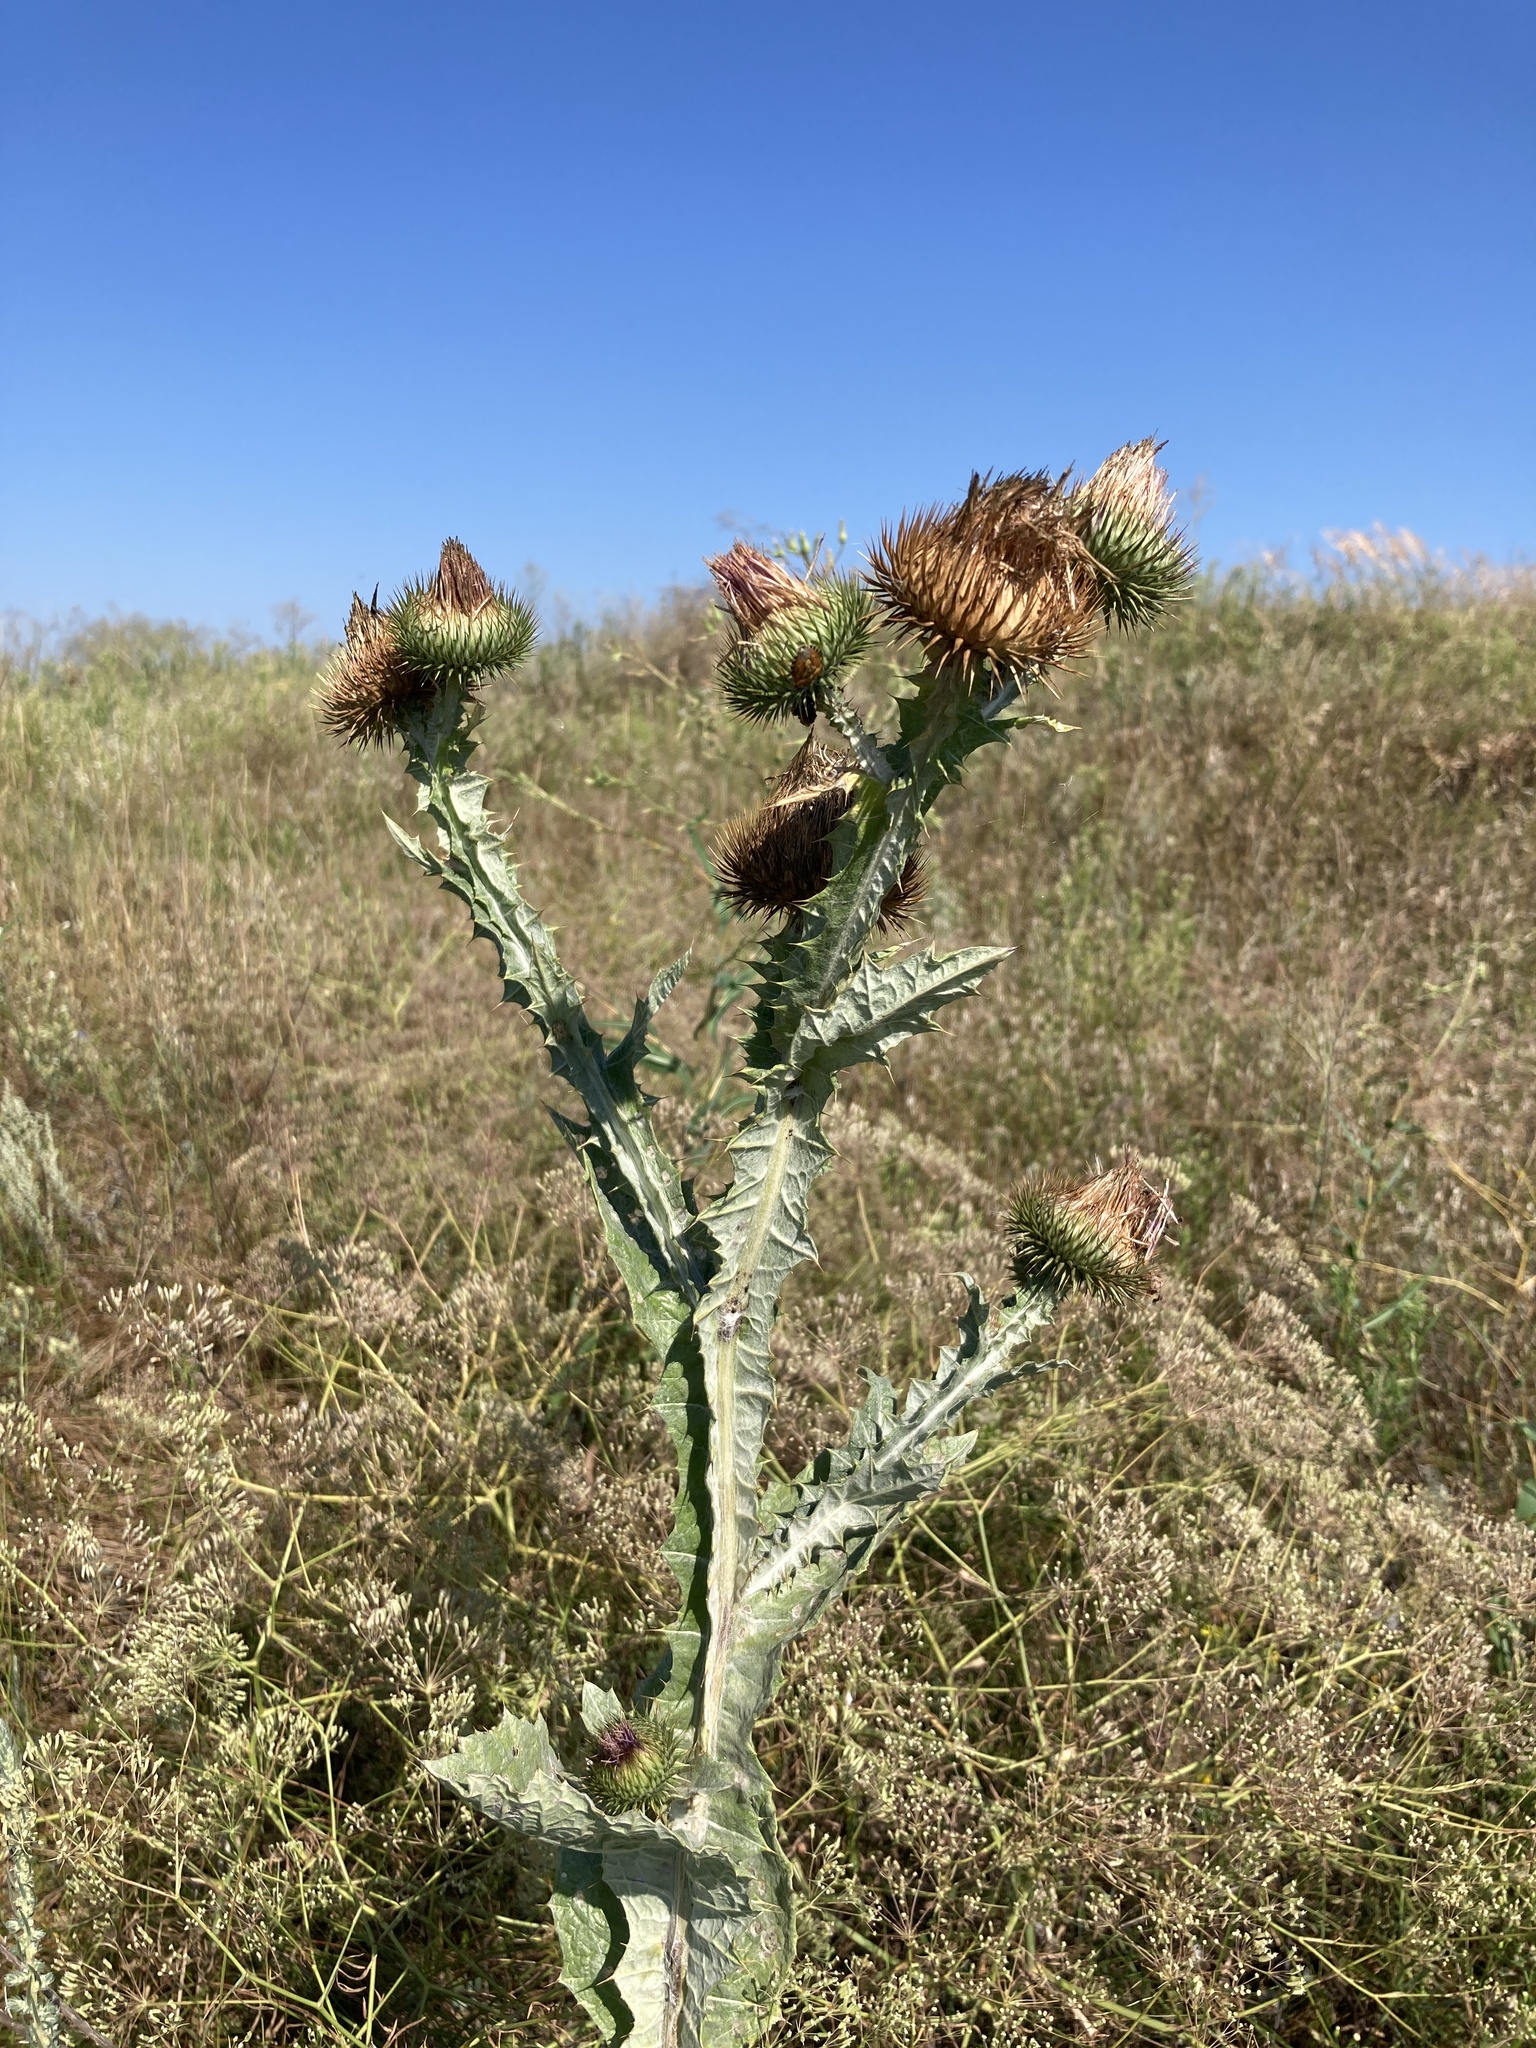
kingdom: Plantae
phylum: Tracheophyta
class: Magnoliopsida
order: Asterales
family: Asteraceae
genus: Onopordum
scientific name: Onopordum acanthium
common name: Scotch thistle
